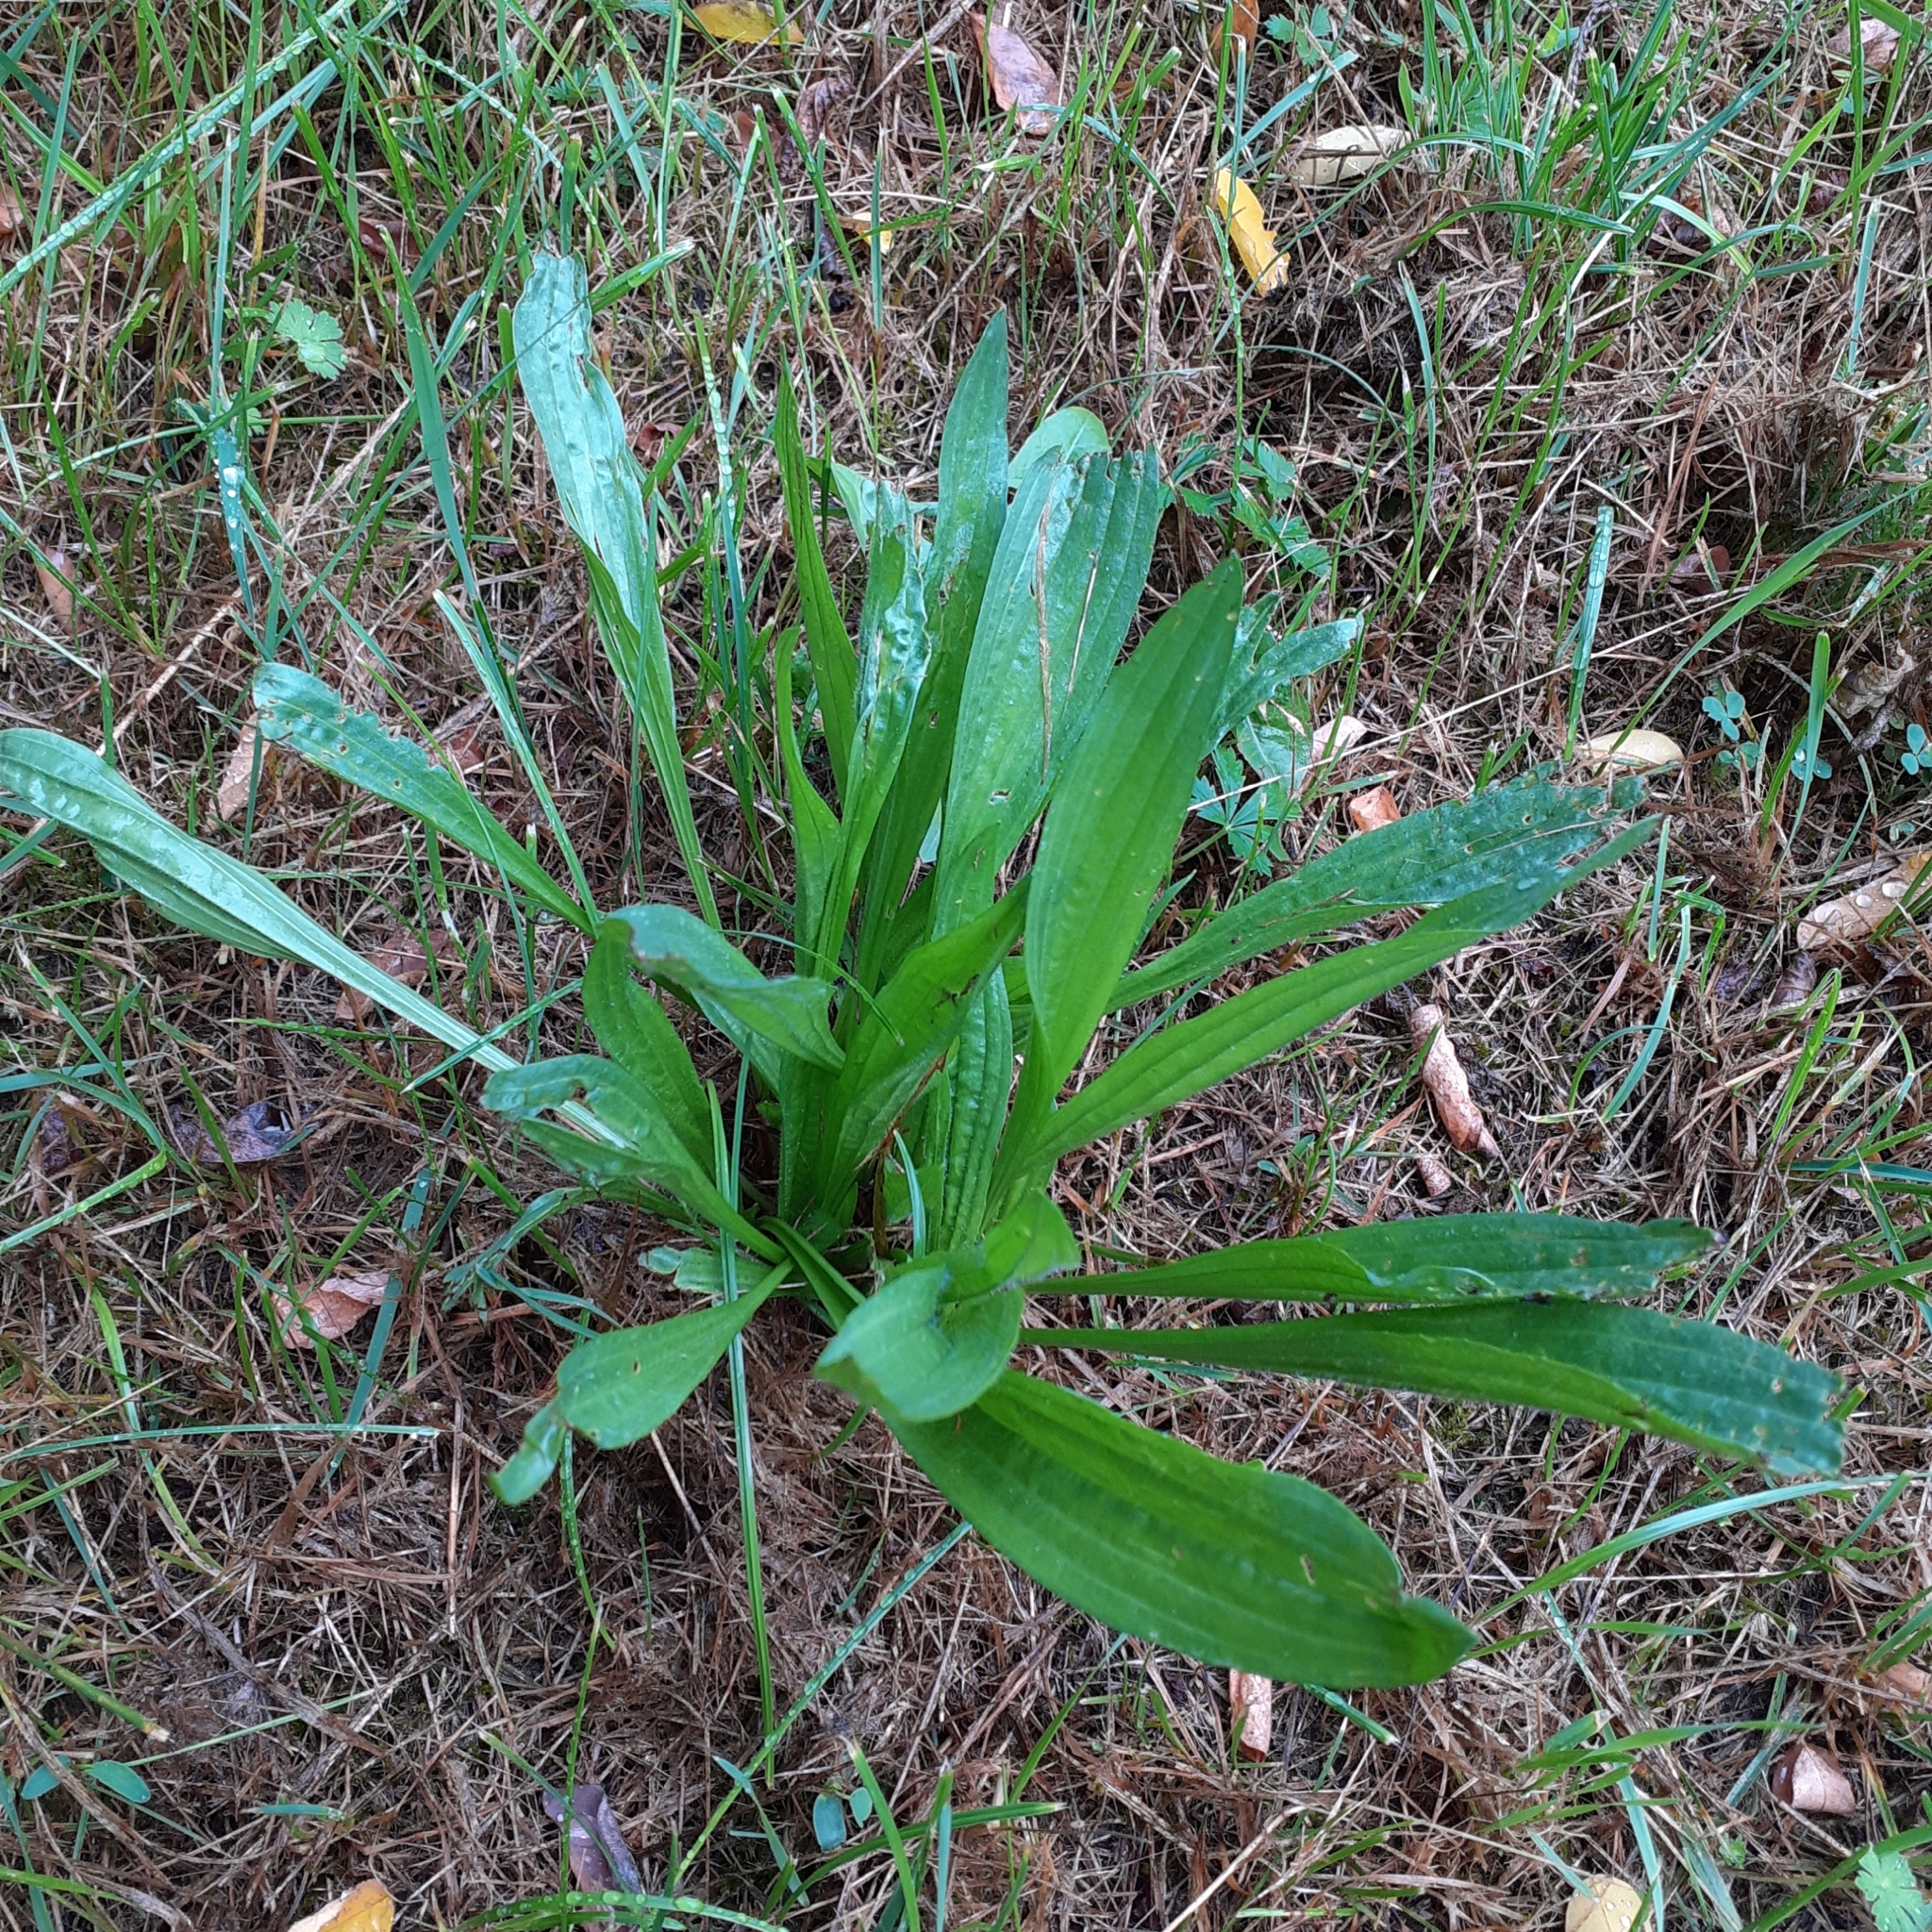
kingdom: Plantae
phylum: Tracheophyta
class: Magnoliopsida
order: Lamiales
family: Plantaginaceae
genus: Plantago
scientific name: Plantago lanceolata
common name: Ribwort plantain
